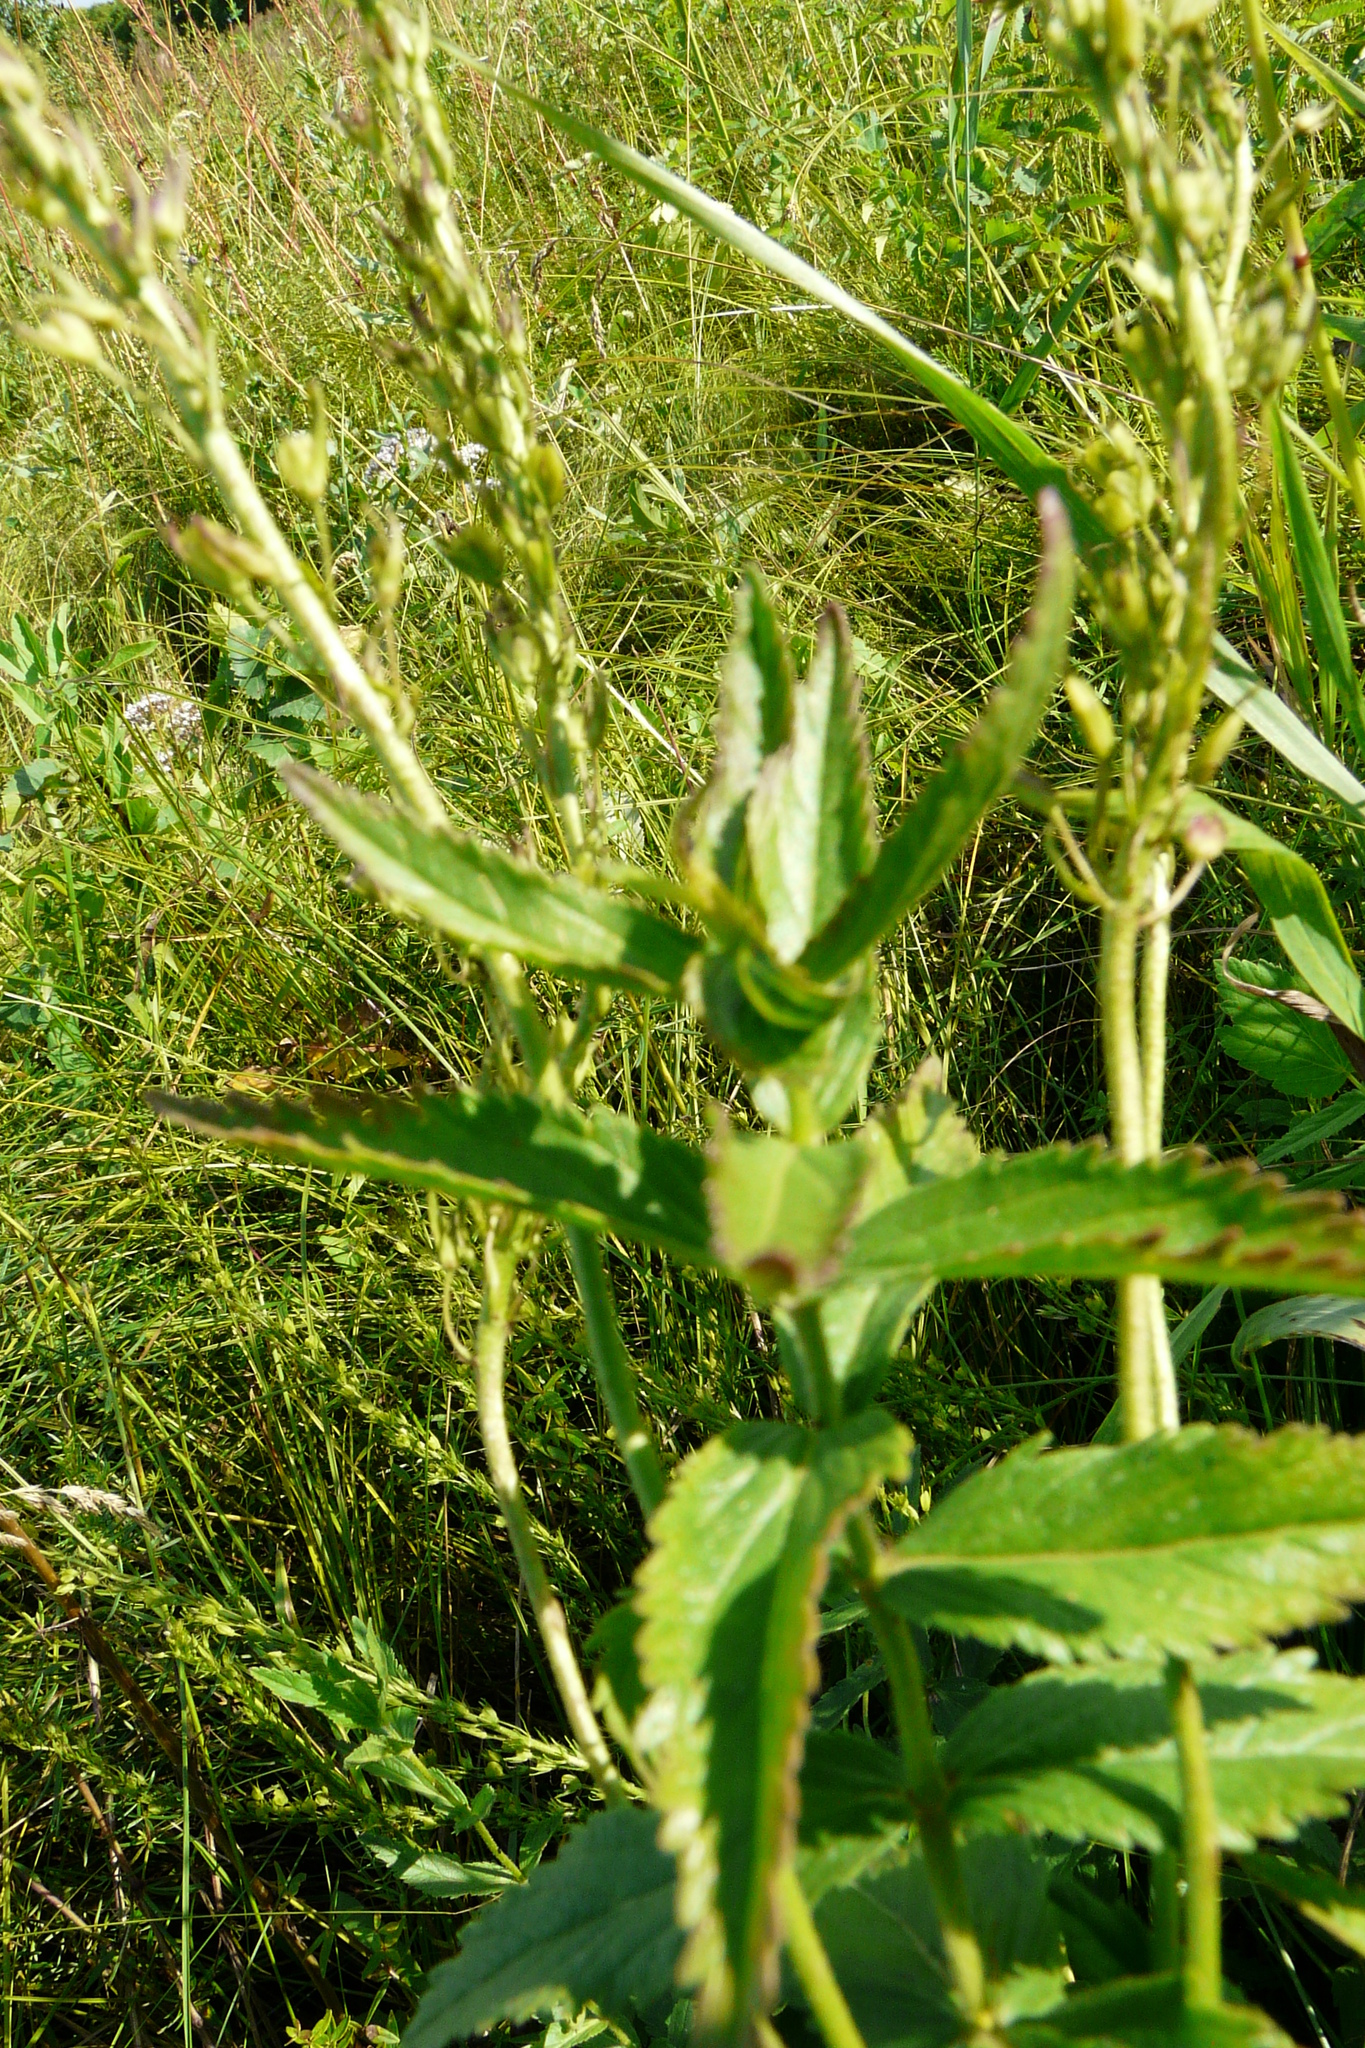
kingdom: Plantae
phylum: Tracheophyta
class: Magnoliopsida
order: Lamiales
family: Plantaginaceae
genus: Veronica
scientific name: Veronica teucrium
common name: Large speedwell
